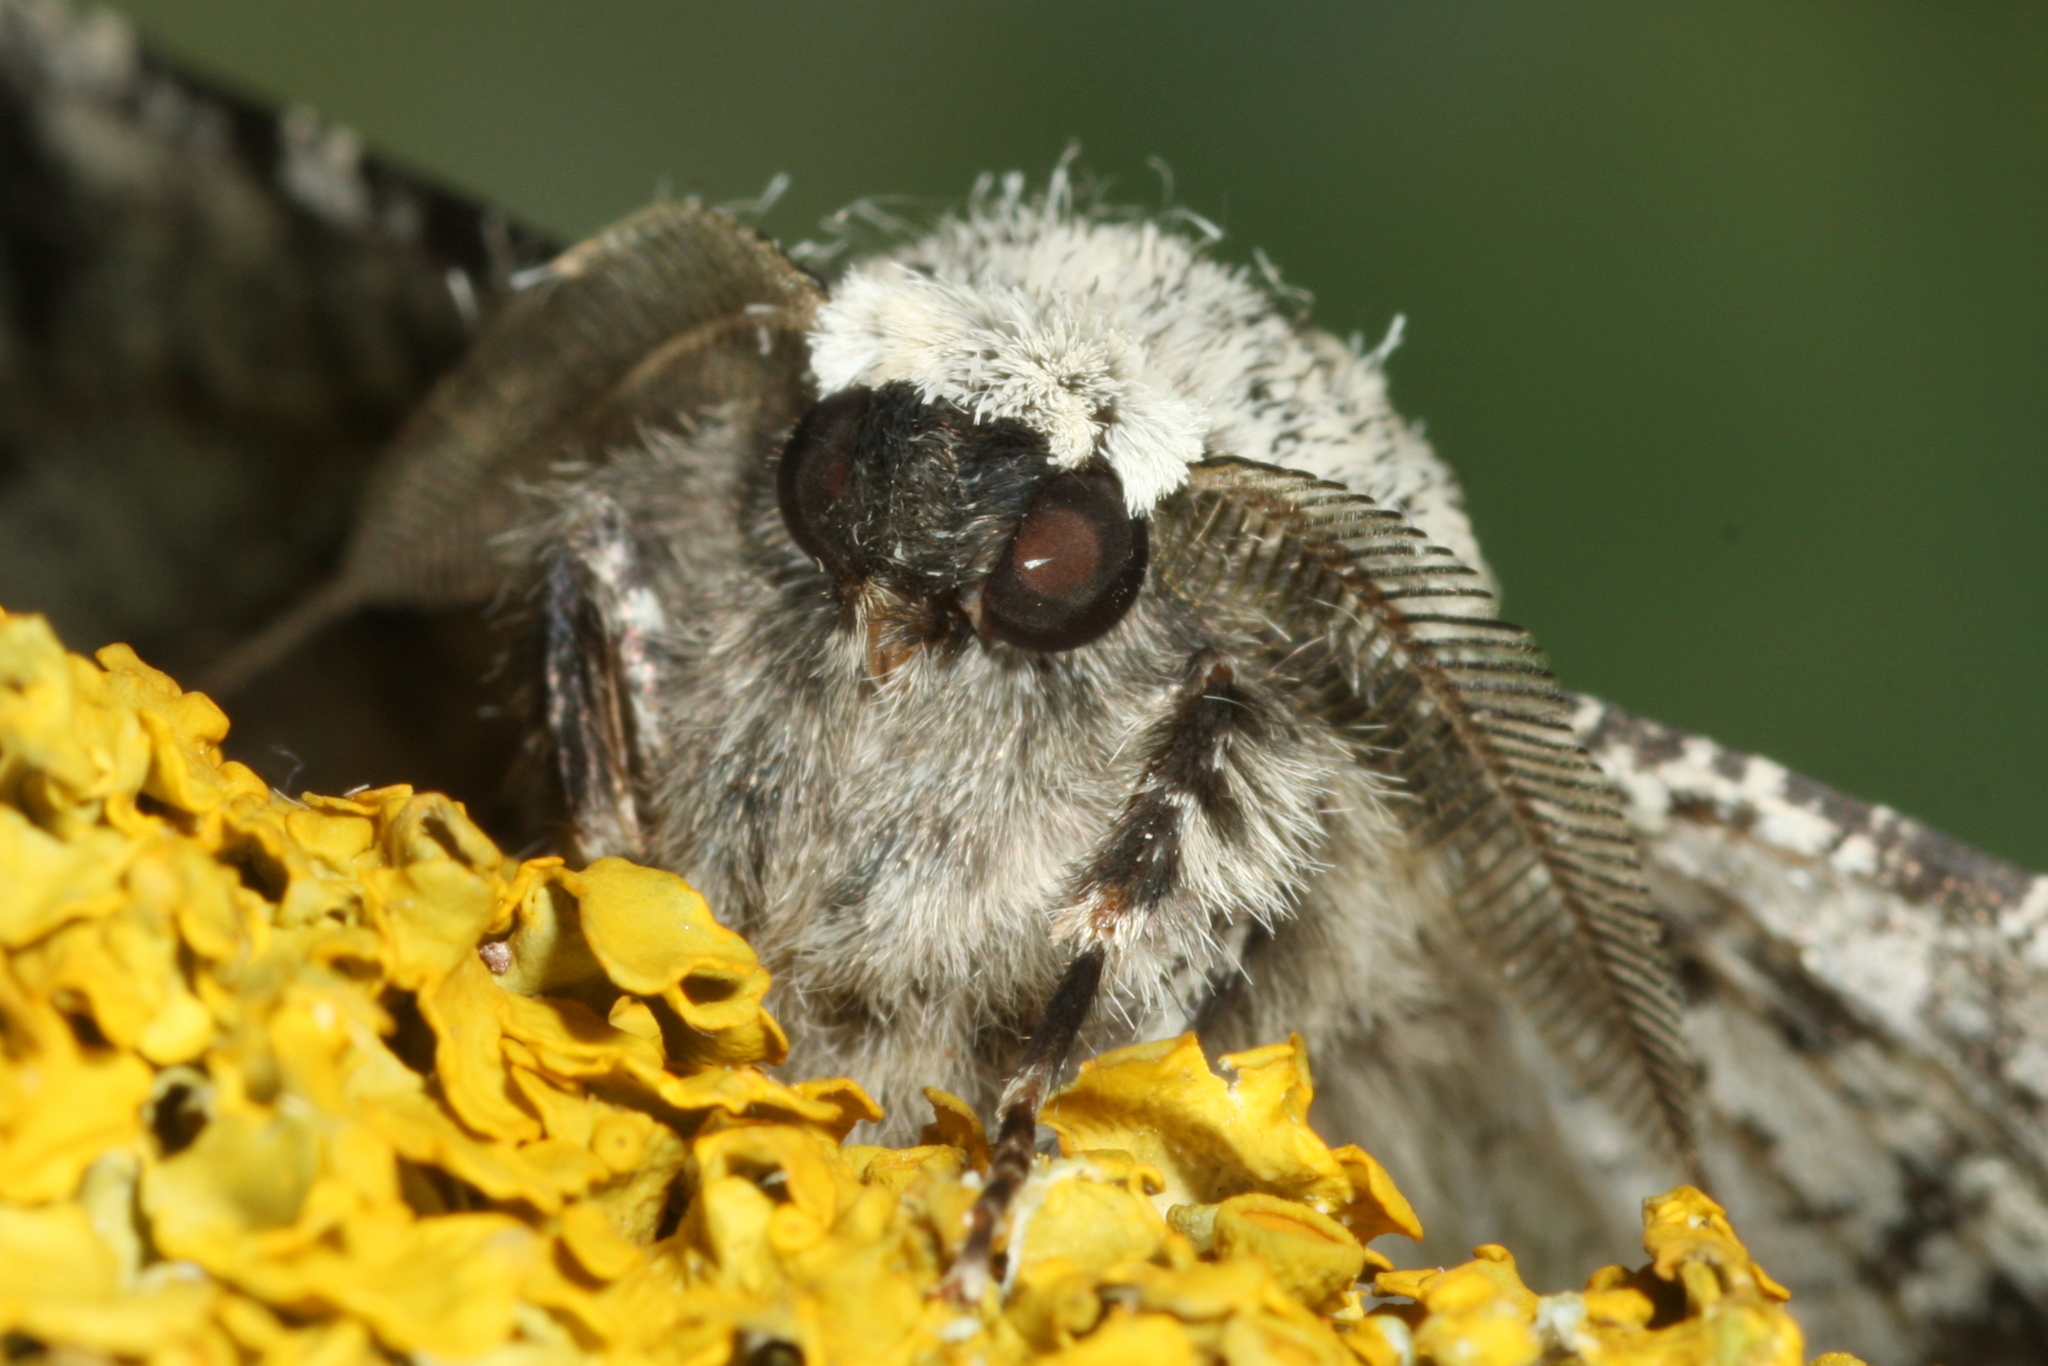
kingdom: Animalia
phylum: Arthropoda
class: Insecta
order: Lepidoptera
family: Geometridae
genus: Biston
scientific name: Biston betularia
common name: Peppered moth
